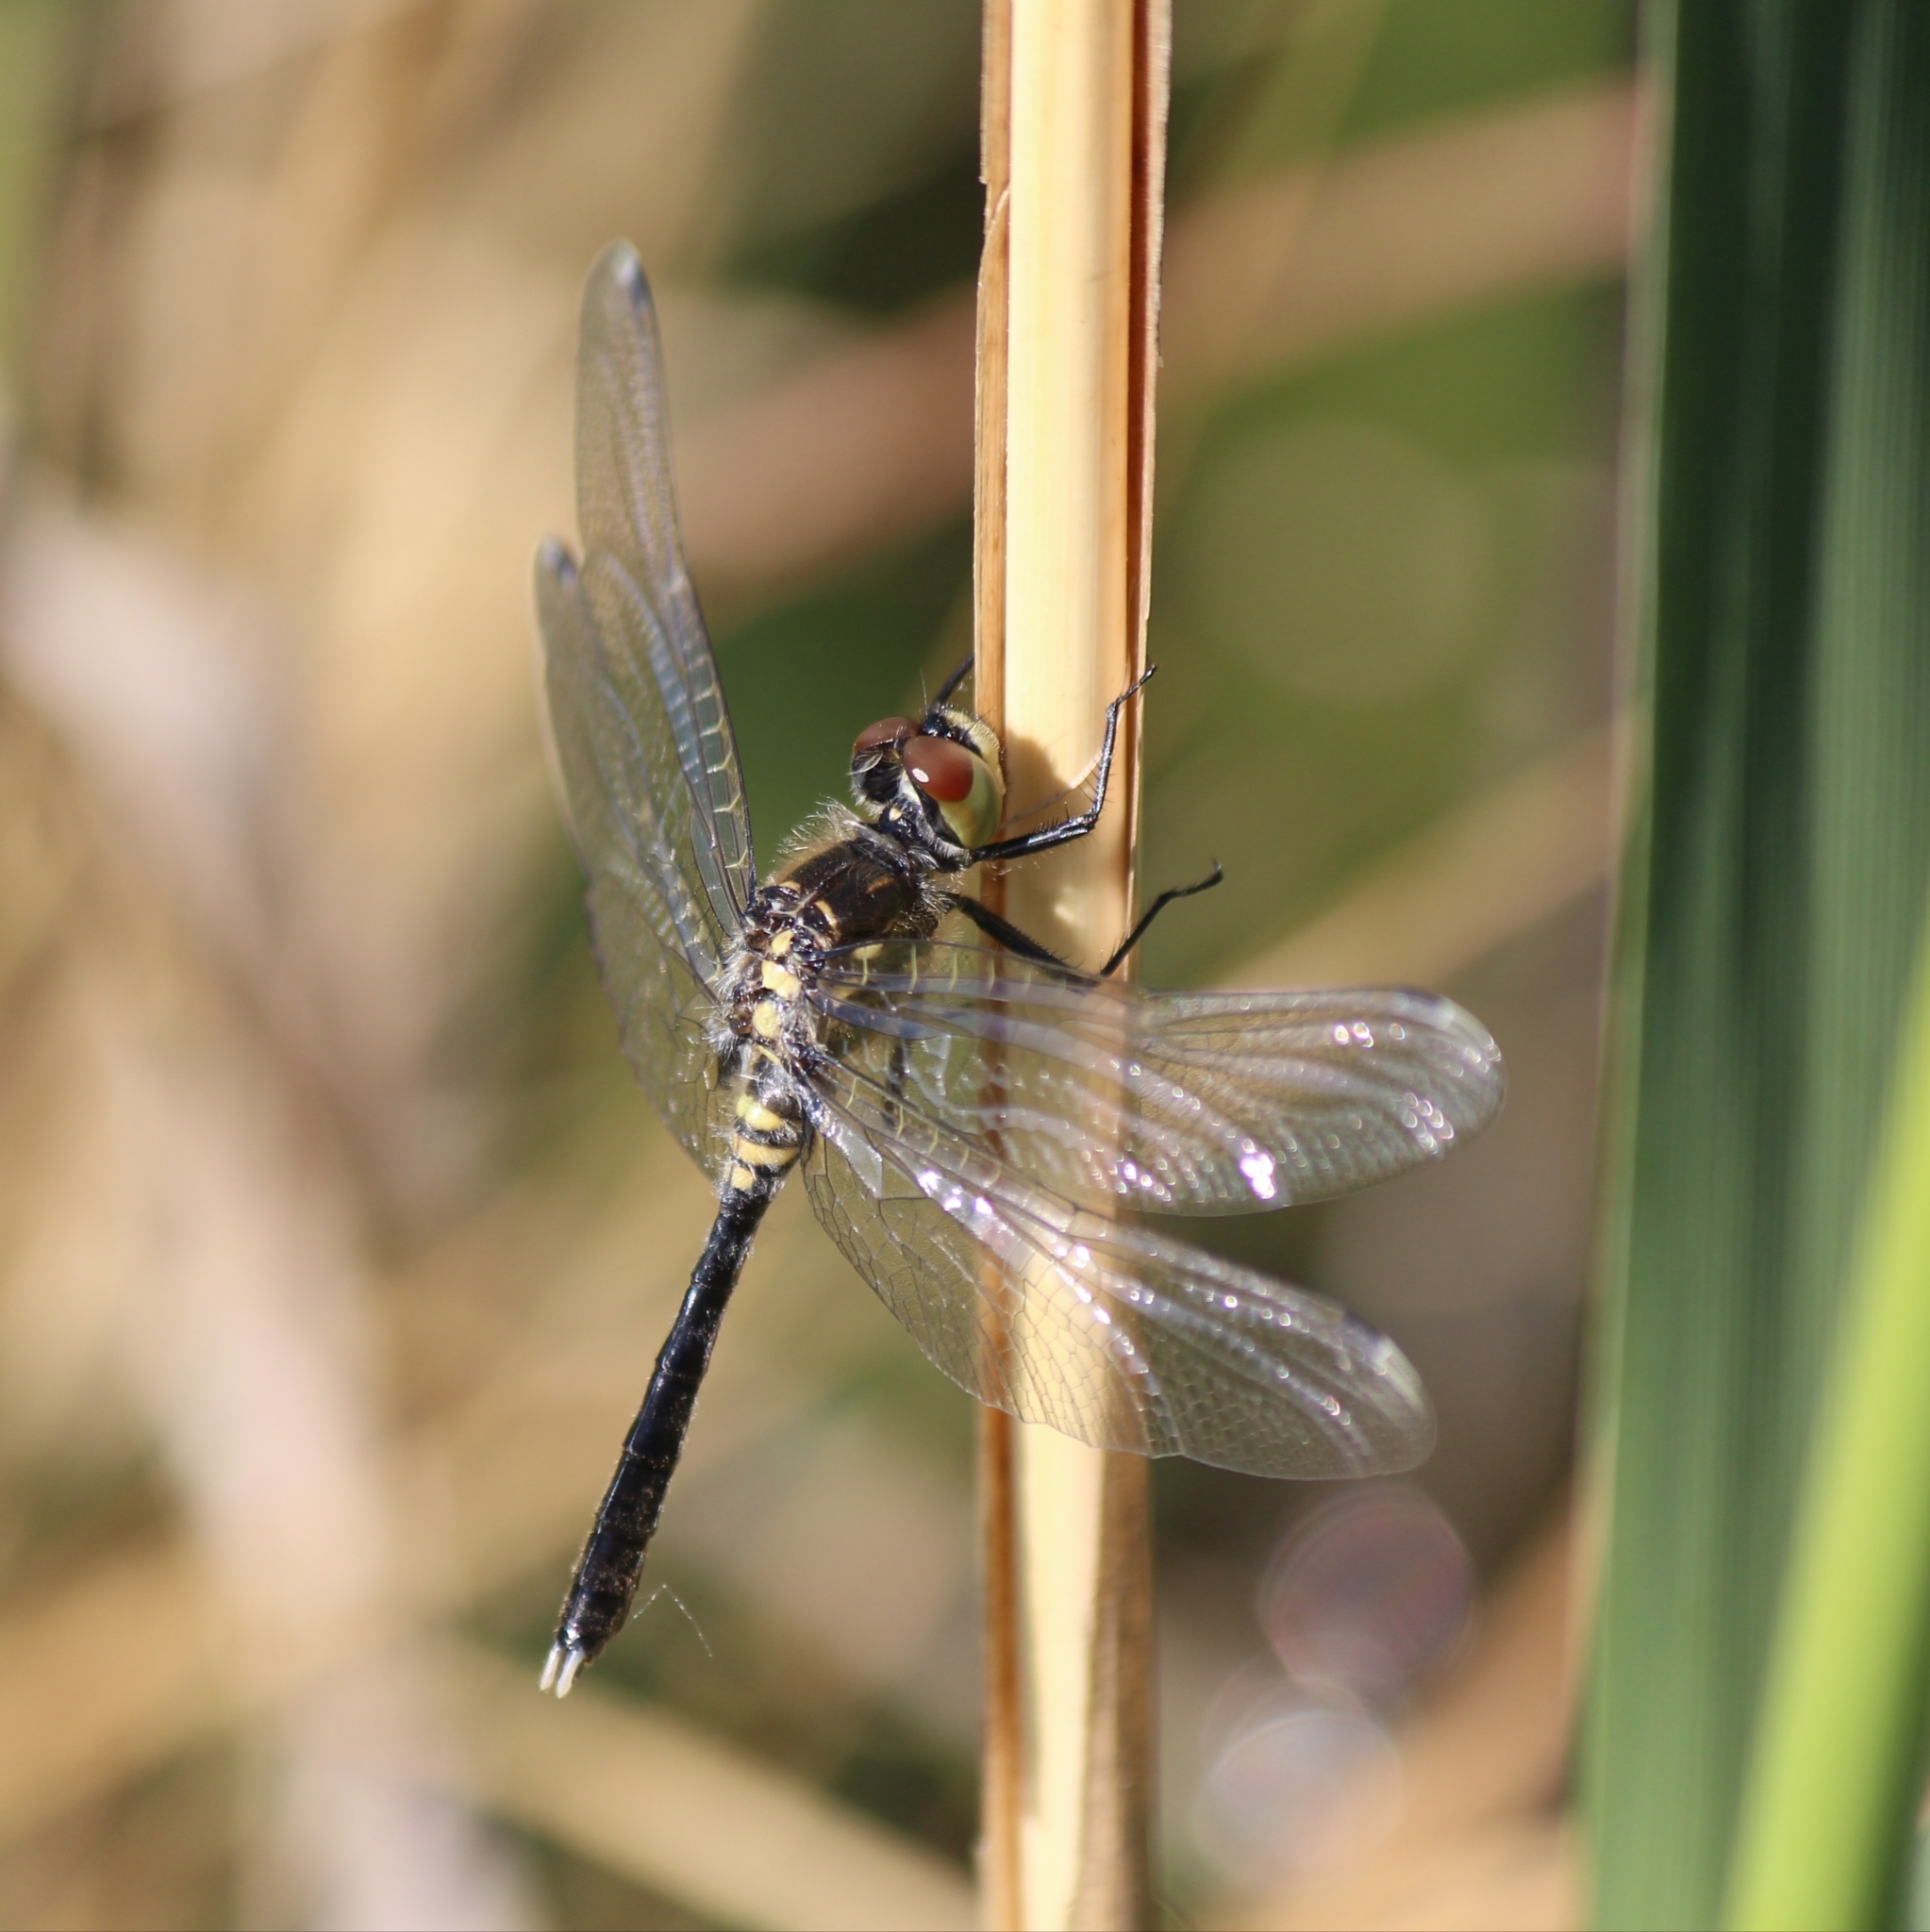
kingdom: Animalia
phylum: Arthropoda
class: Insecta
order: Odonata
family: Libellulidae
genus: Leucorrhinia
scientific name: Leucorrhinia albifrons
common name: Dark whiteface
